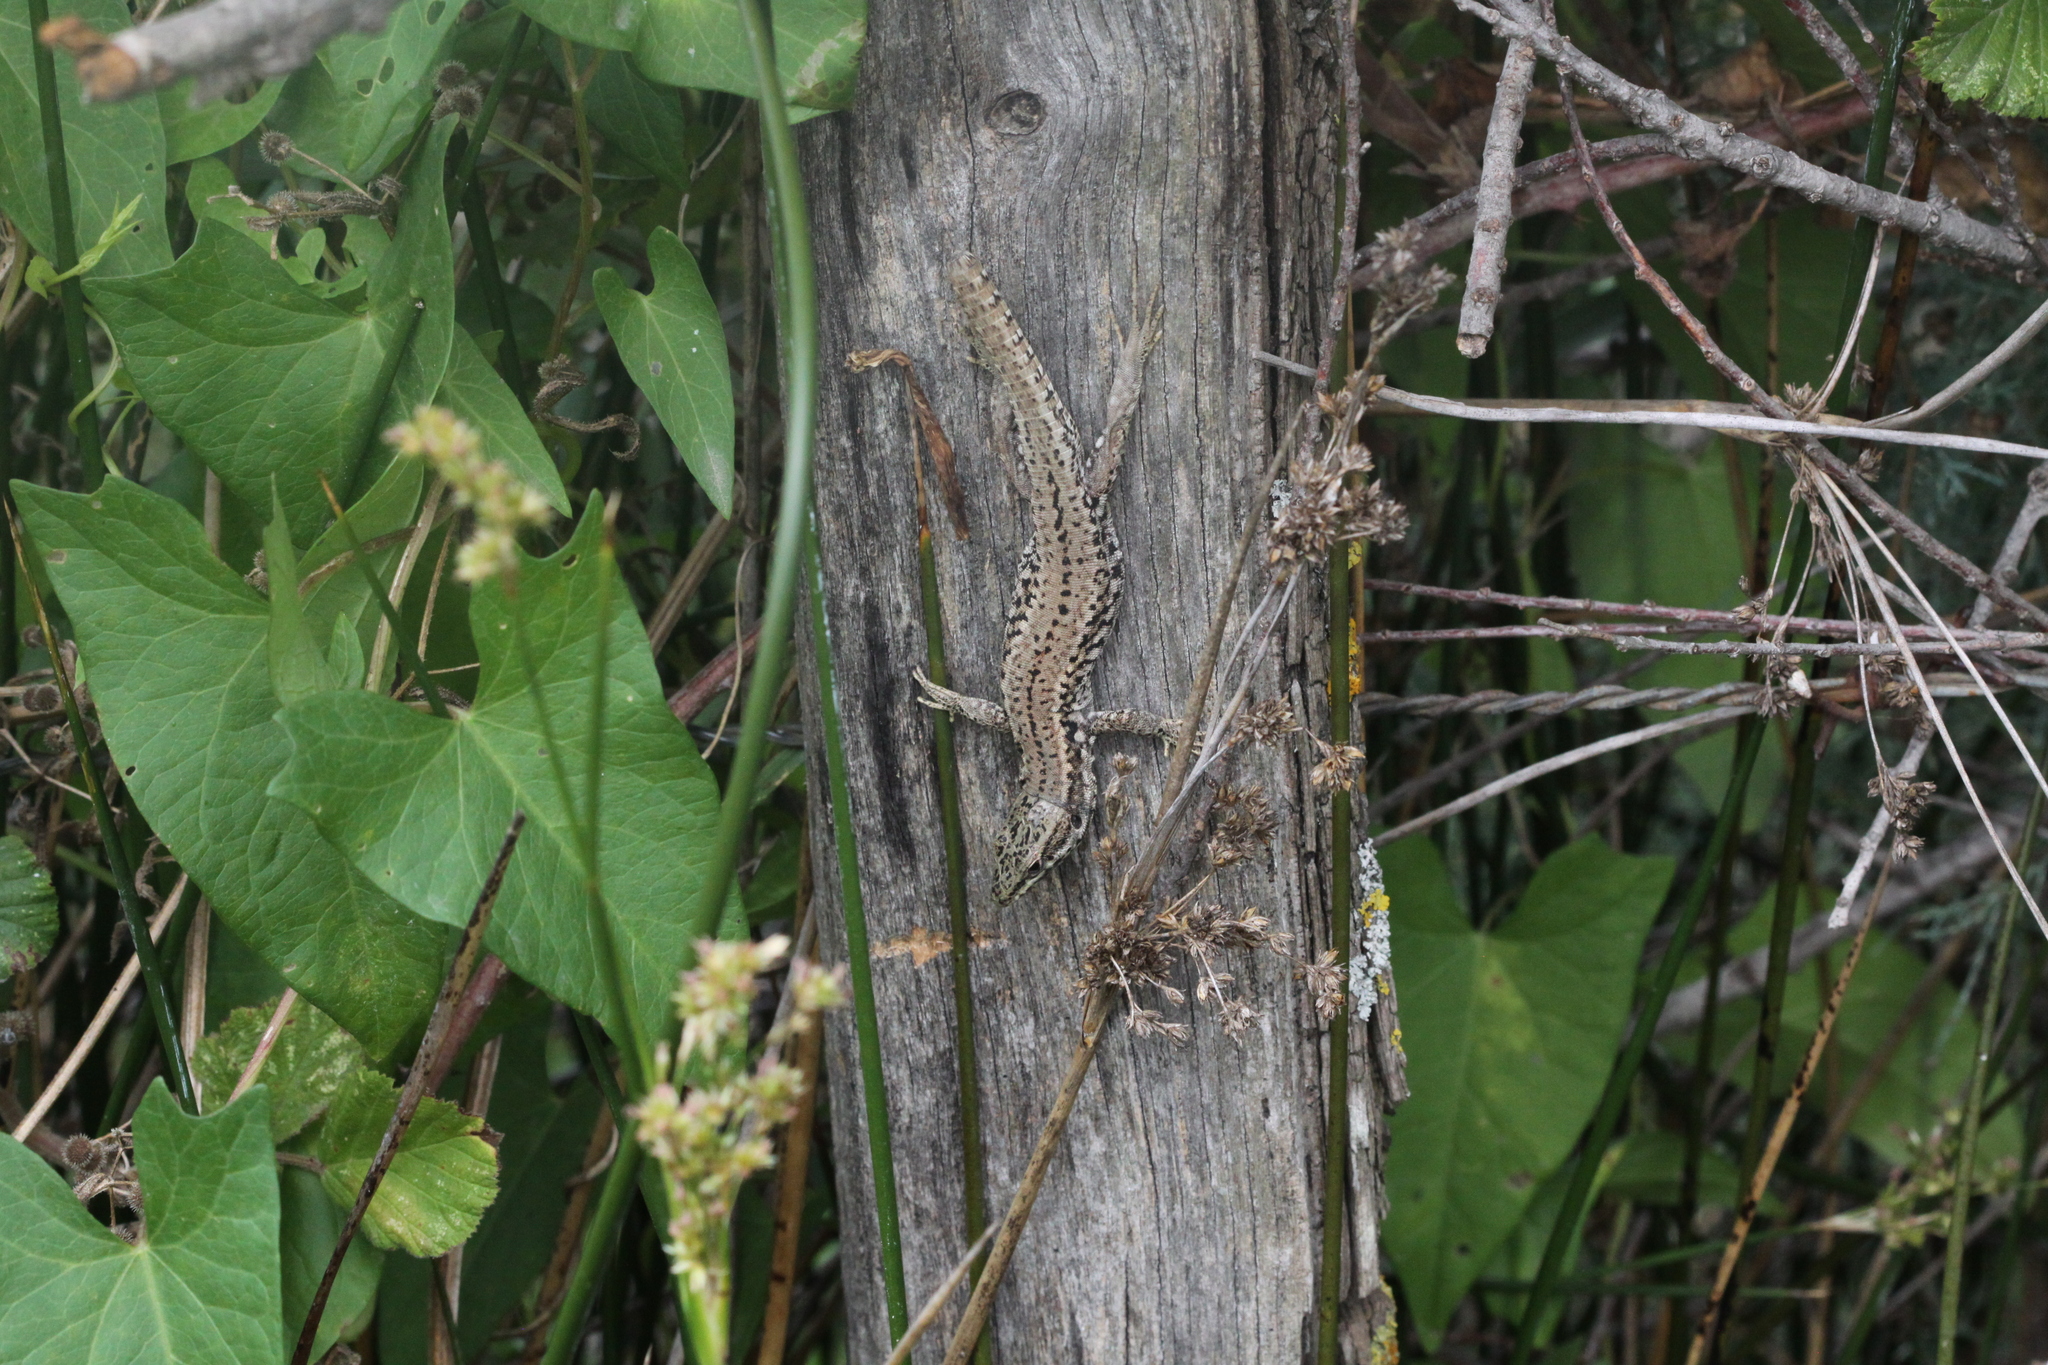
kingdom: Animalia
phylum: Chordata
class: Squamata
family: Lacertidae
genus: Podarcis
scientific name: Podarcis muralis
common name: Common wall lizard
